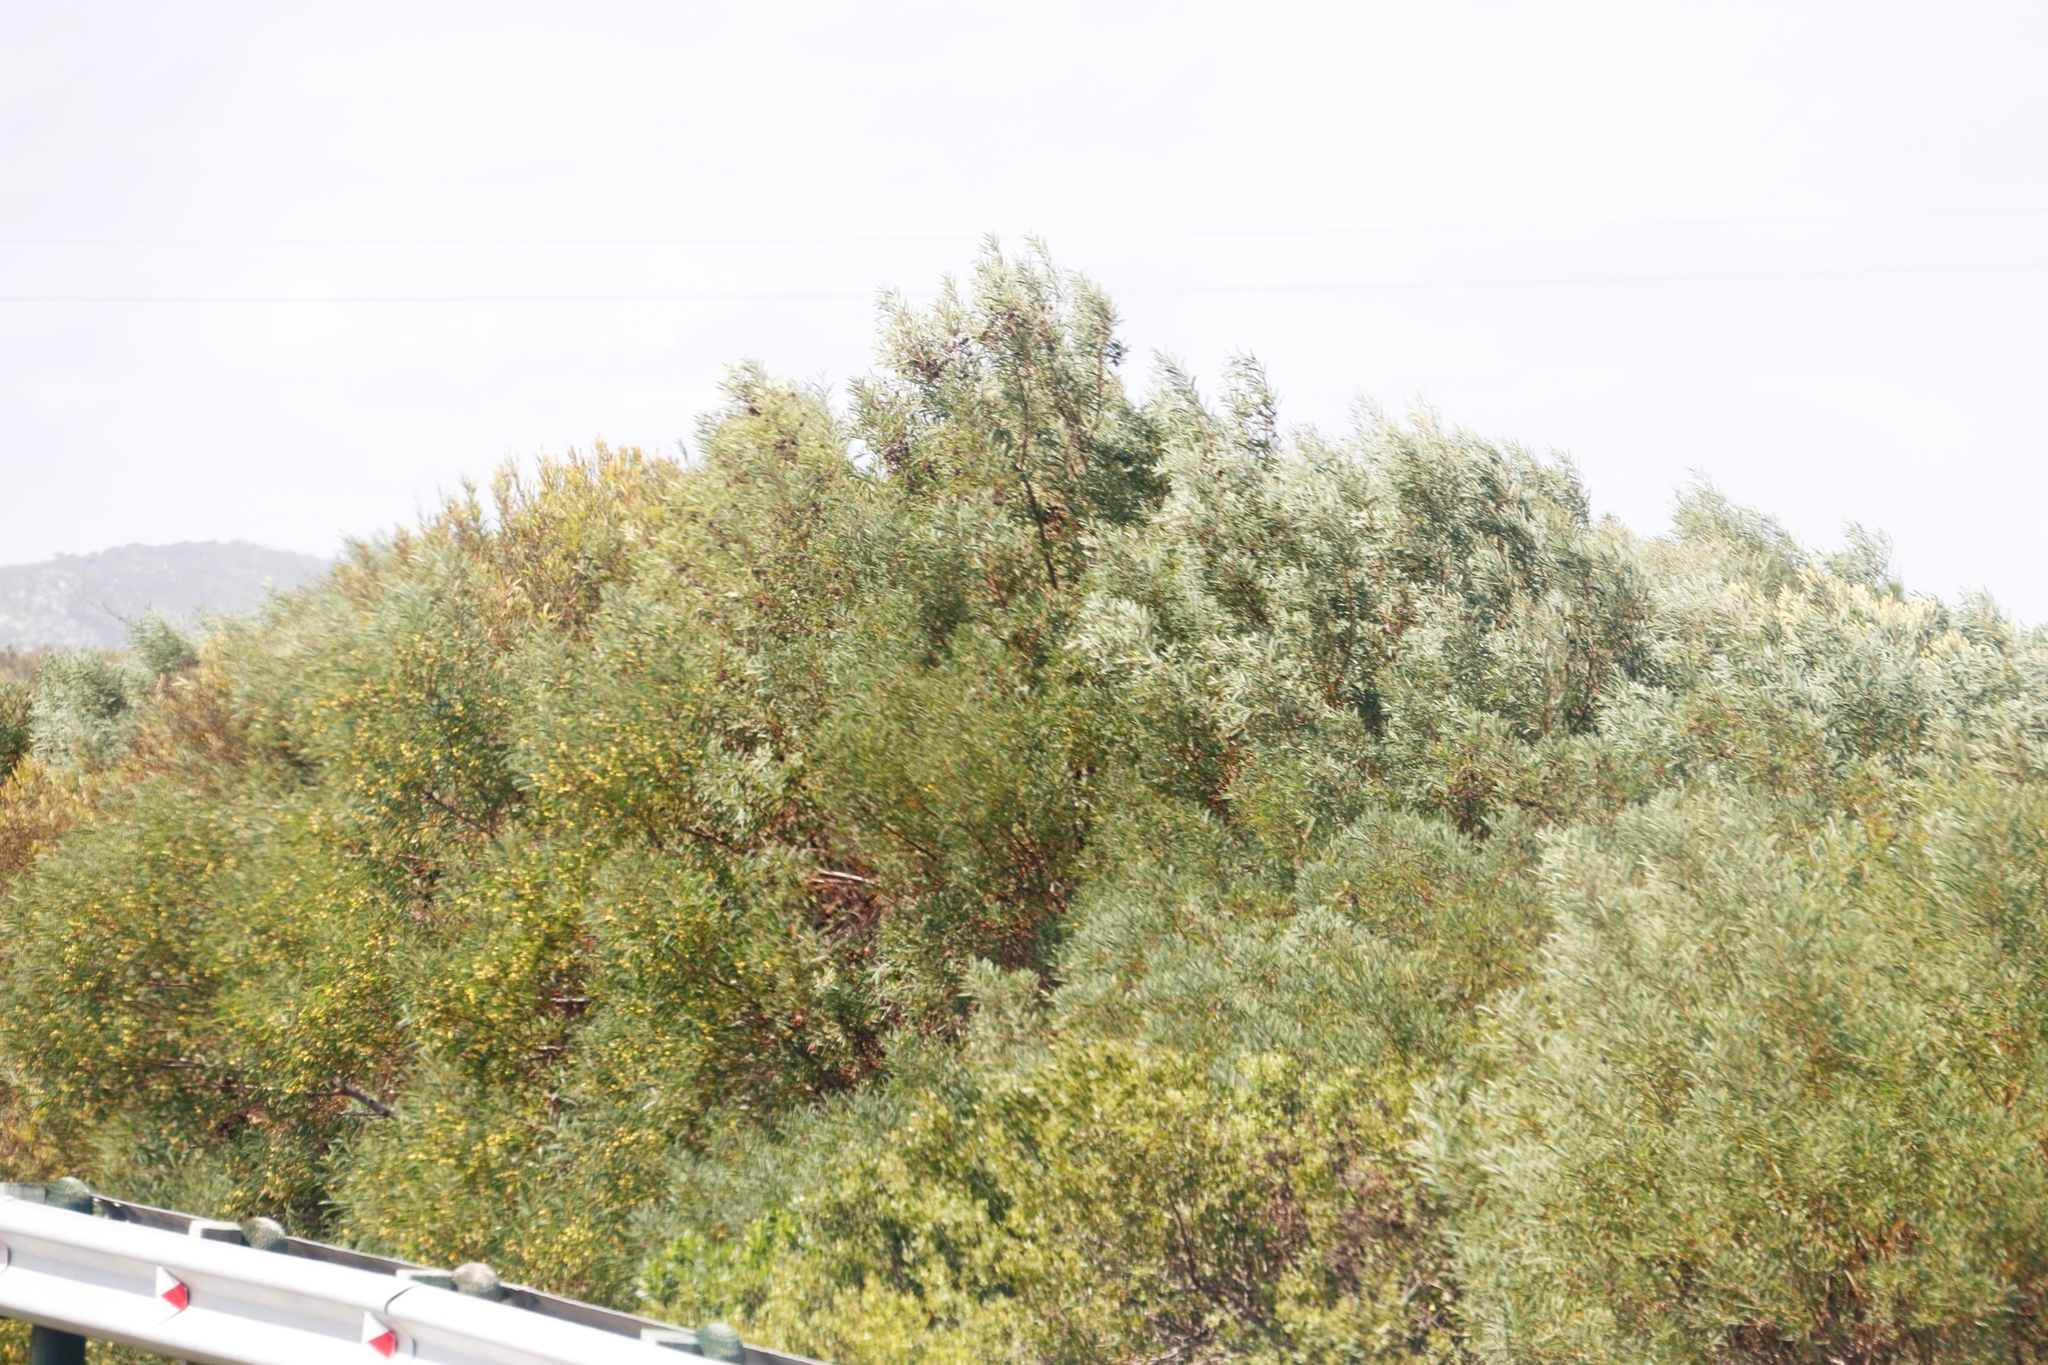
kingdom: Plantae
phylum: Tracheophyta
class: Magnoliopsida
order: Fabales
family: Fabaceae
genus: Acacia
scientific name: Acacia saligna
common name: Orange wattle
